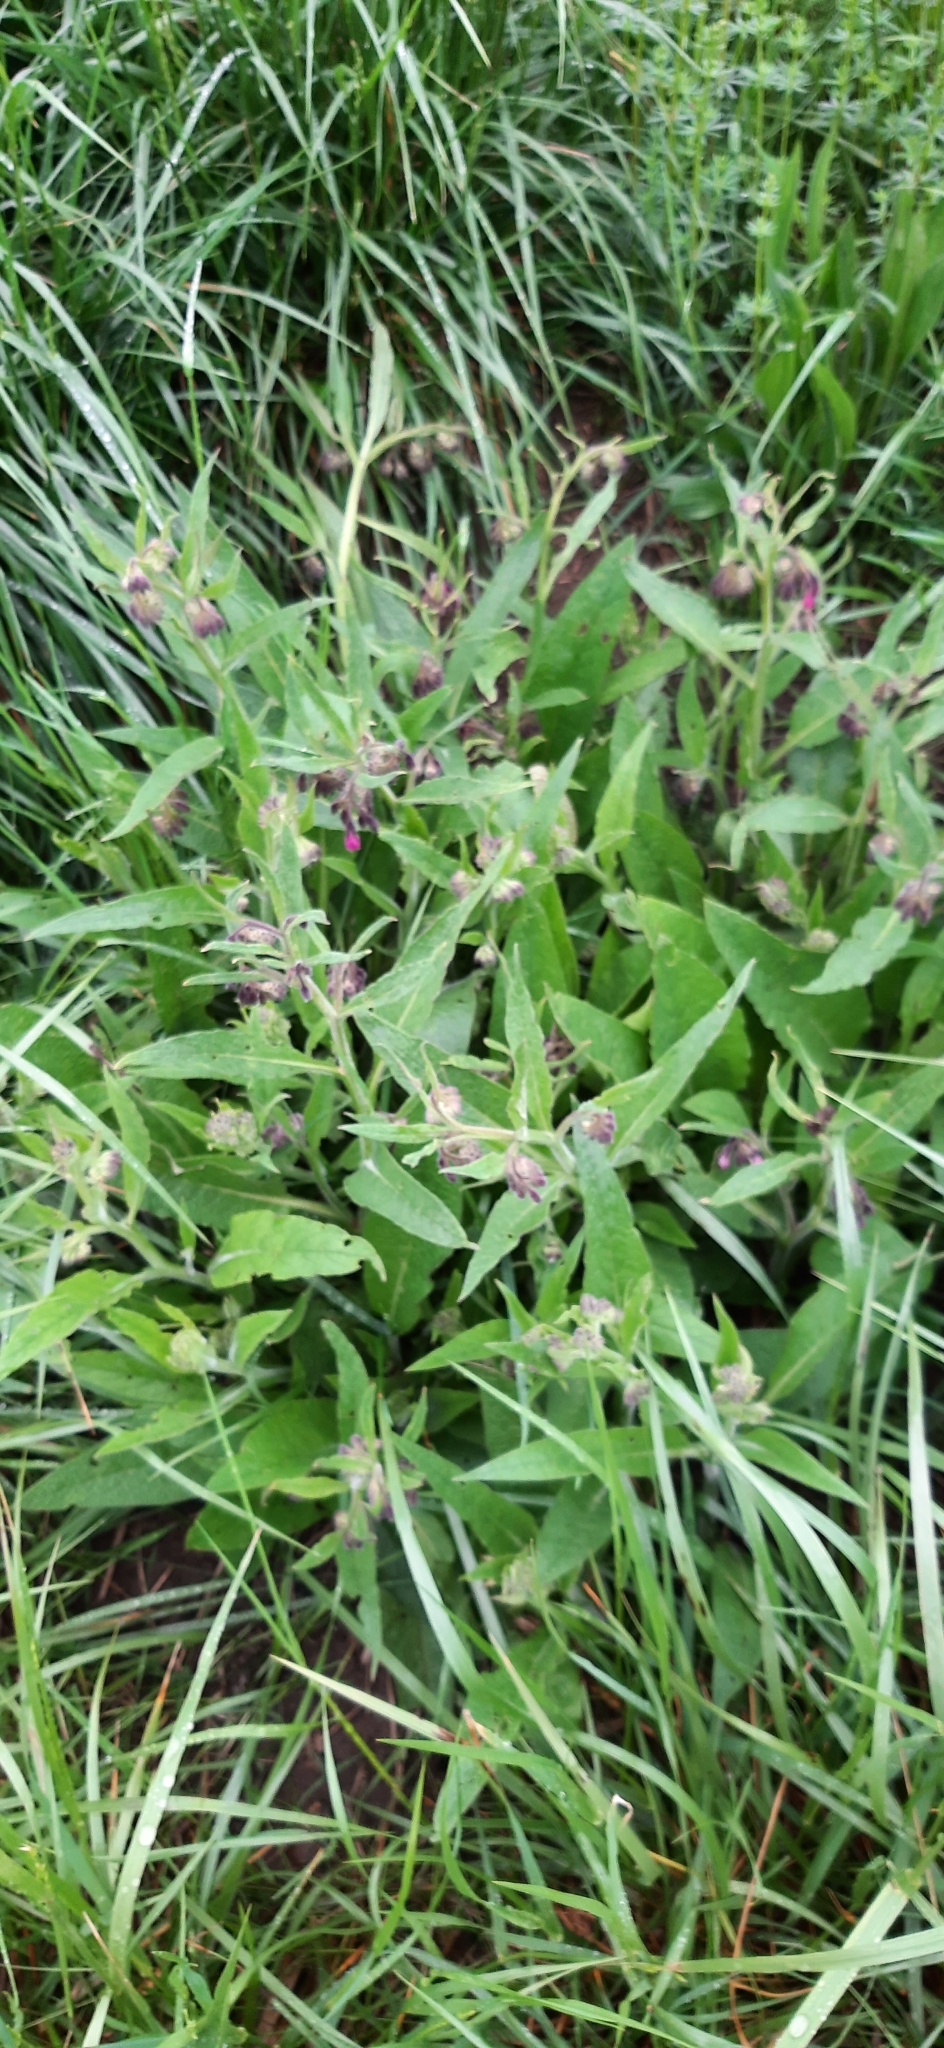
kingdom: Plantae
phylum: Tracheophyta
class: Magnoliopsida
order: Boraginales
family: Boraginaceae
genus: Symphytum
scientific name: Symphytum officinale
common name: Common comfrey
